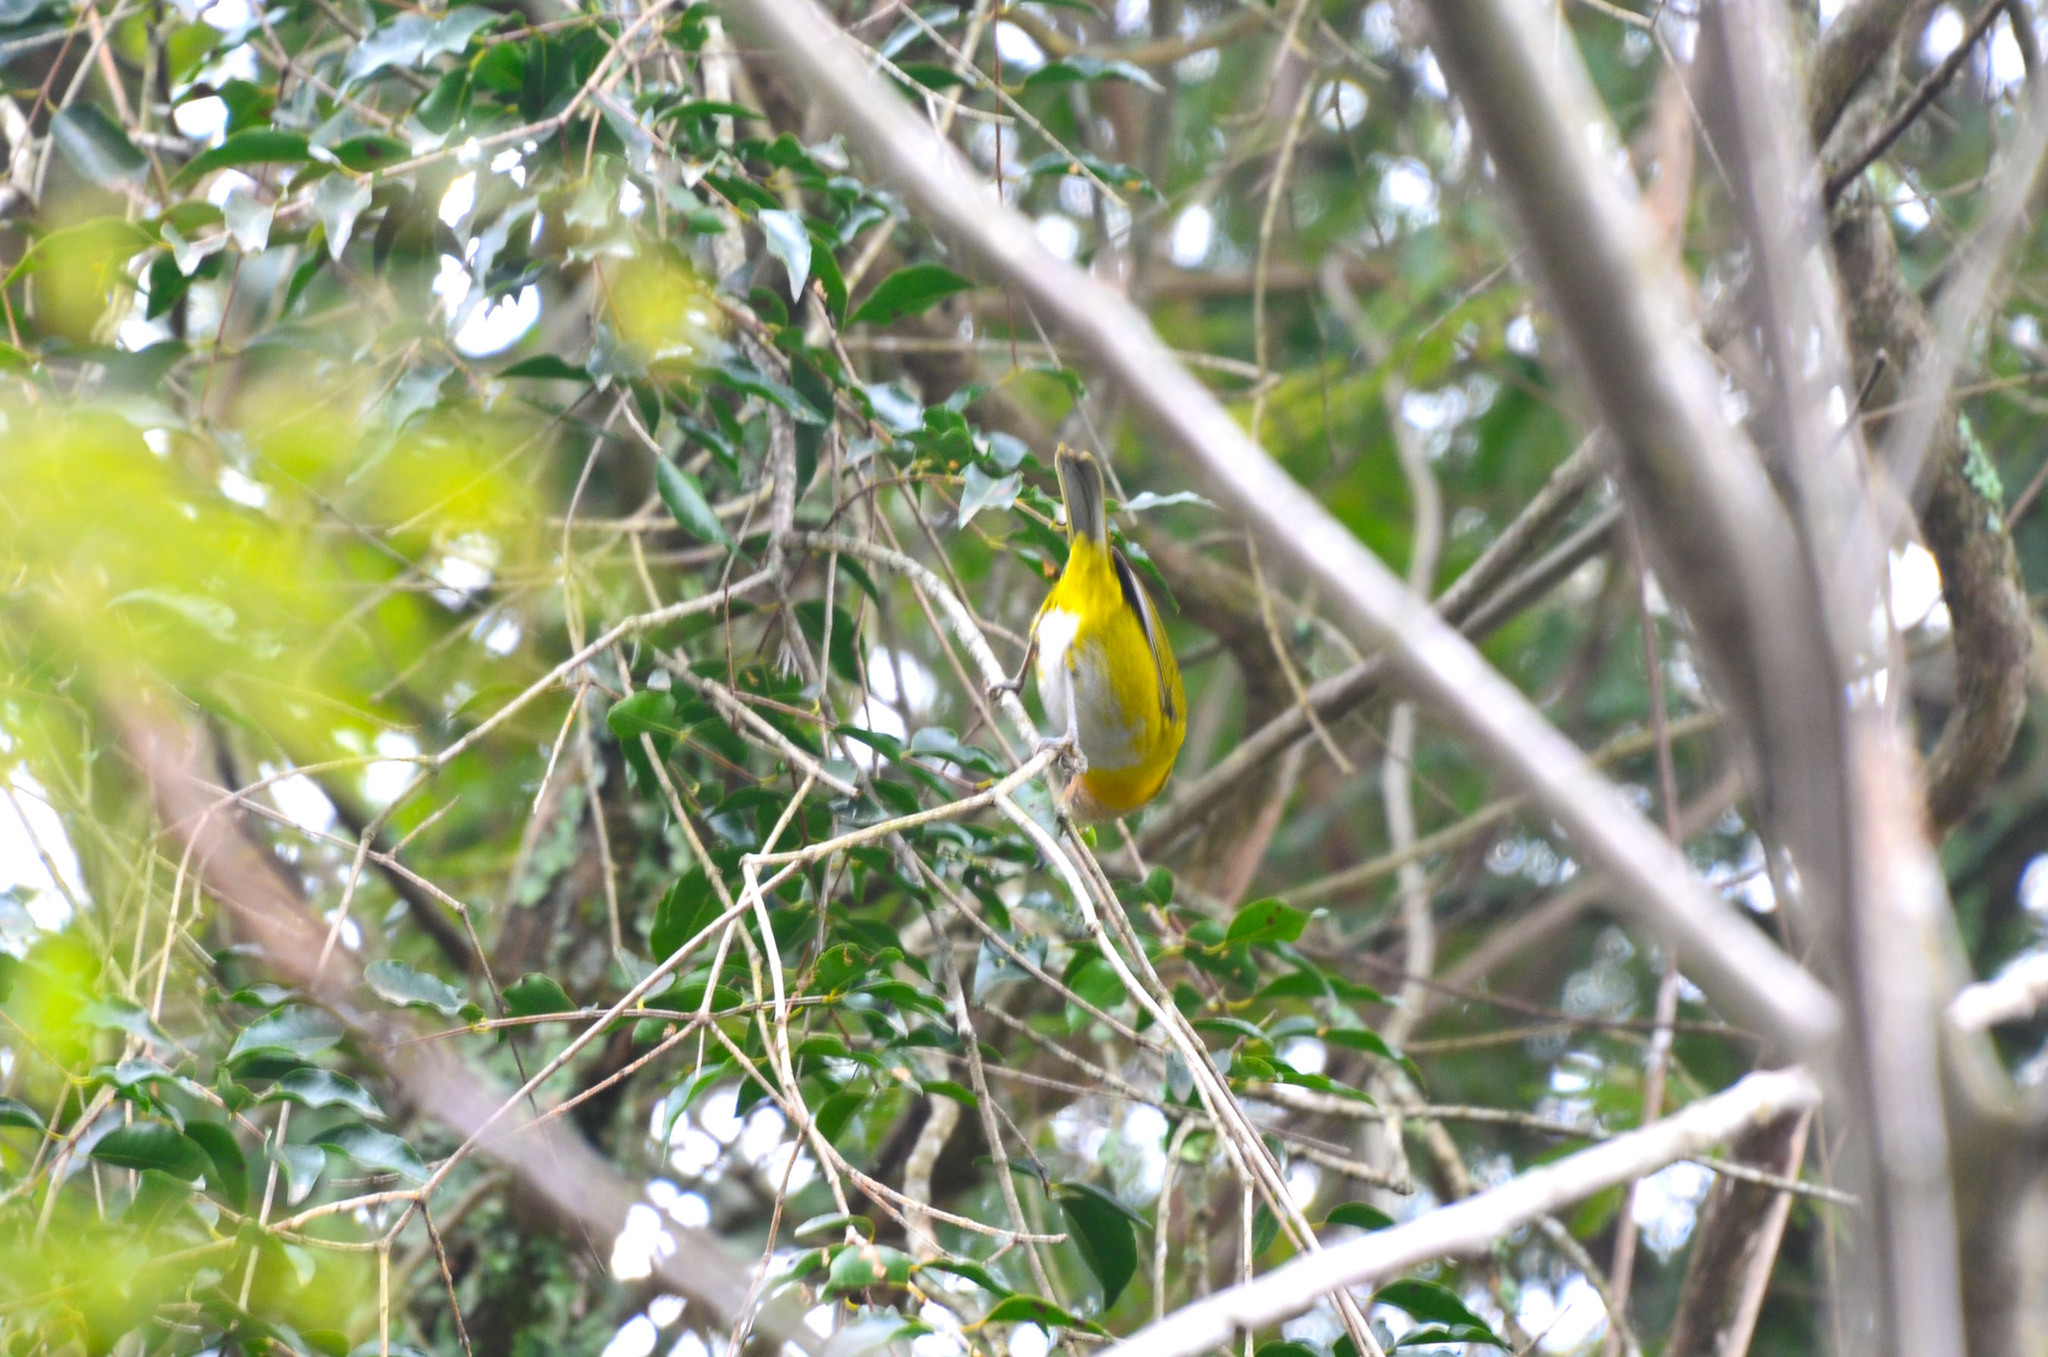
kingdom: Animalia
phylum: Chordata
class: Aves
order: Passeriformes
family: Passerellidae
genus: Chlorospingus
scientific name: Chlorospingus flavopectus
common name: Common chlorospingus
